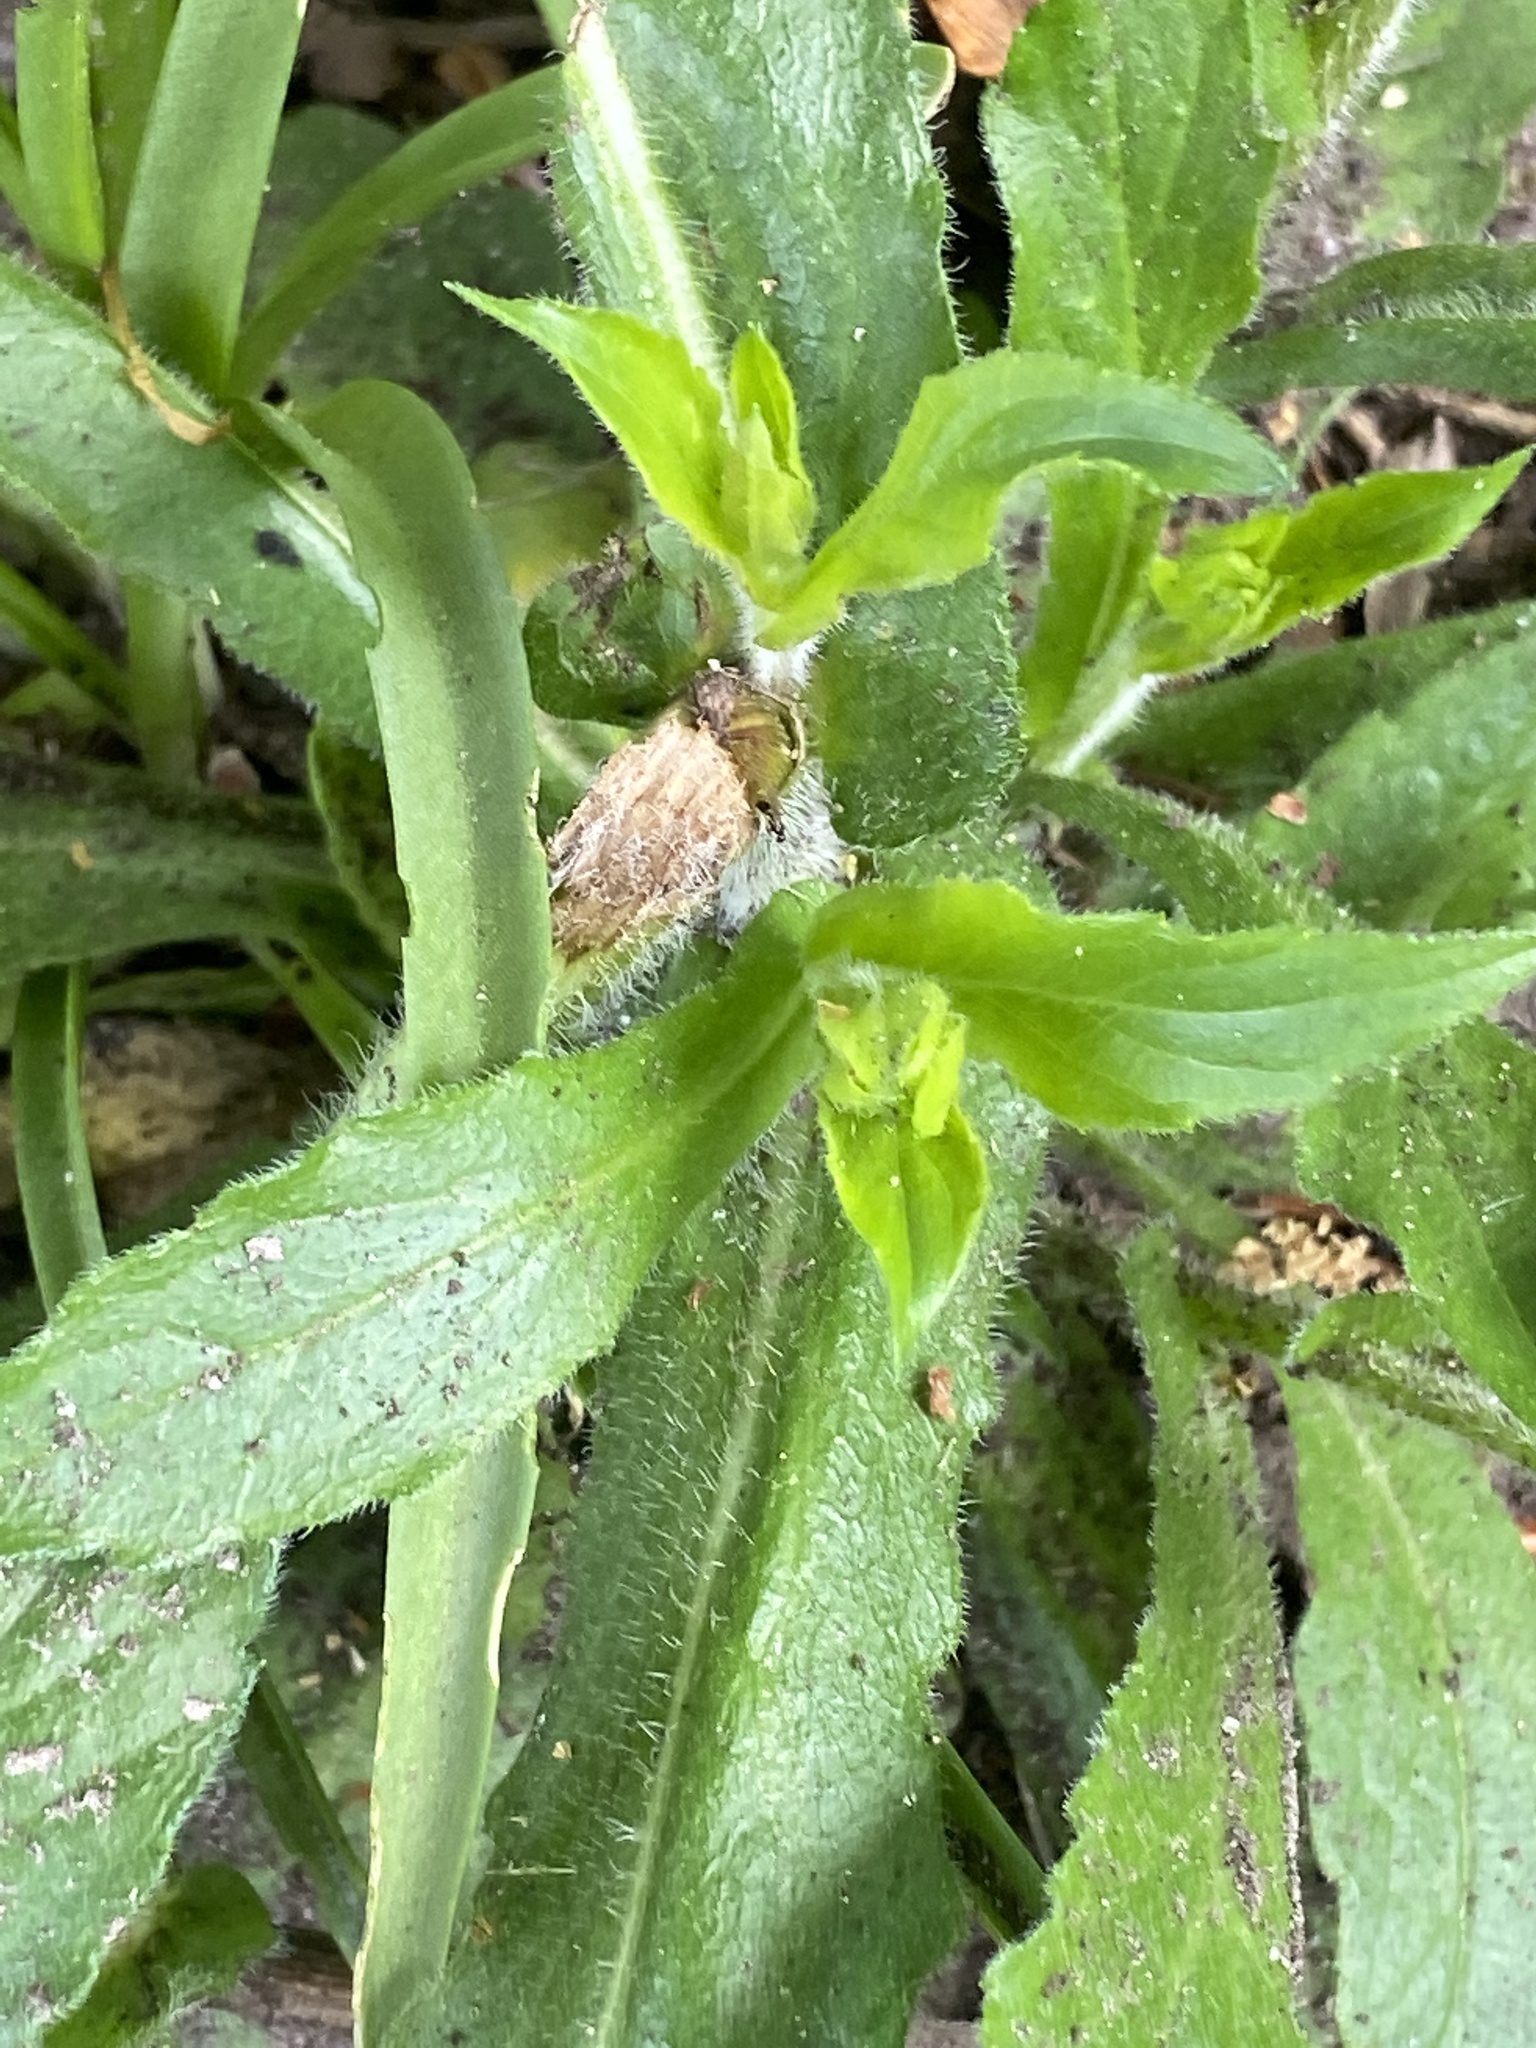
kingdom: Plantae
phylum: Tracheophyta
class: Magnoliopsida
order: Asterales
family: Asteraceae
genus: Erigeron
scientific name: Erigeron philadelphicus
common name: Robin's-plantain
